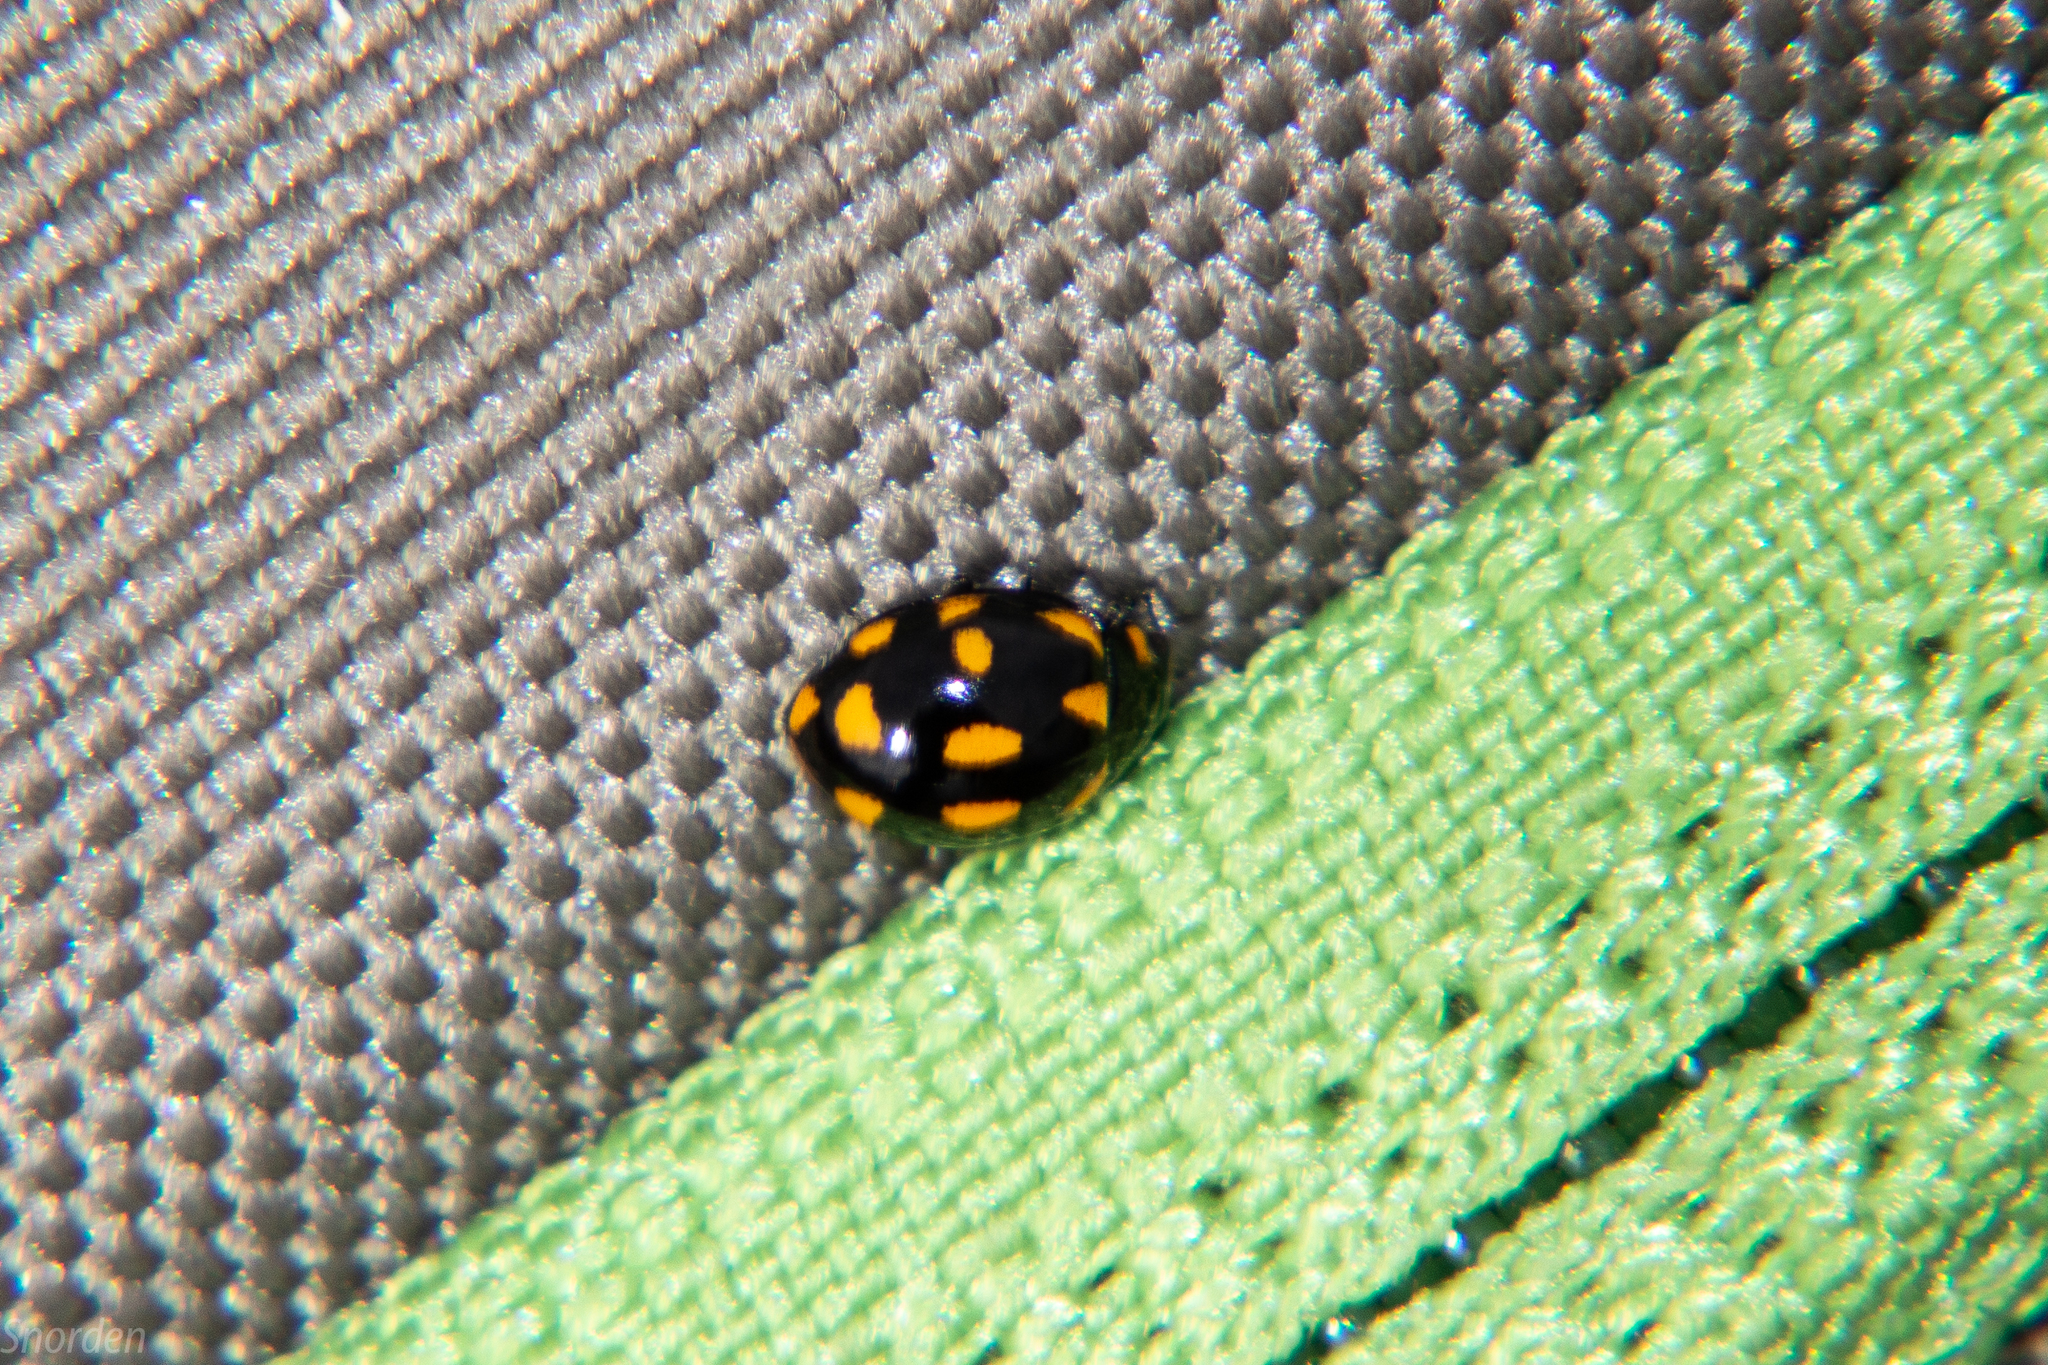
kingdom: Animalia
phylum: Arthropoda
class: Insecta
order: Coleoptera
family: Coccinellidae
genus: Coccinella
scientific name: Coccinella leonina
